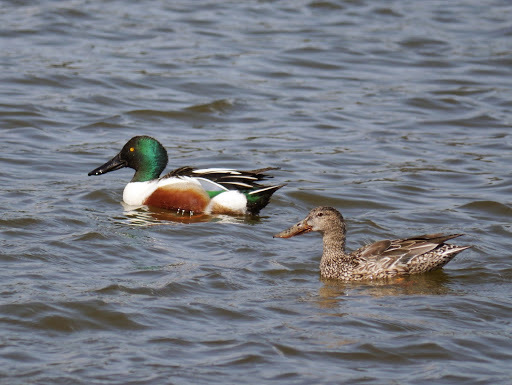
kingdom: Animalia
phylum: Chordata
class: Aves
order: Anseriformes
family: Anatidae
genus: Spatula
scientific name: Spatula clypeata
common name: Northern shoveler
